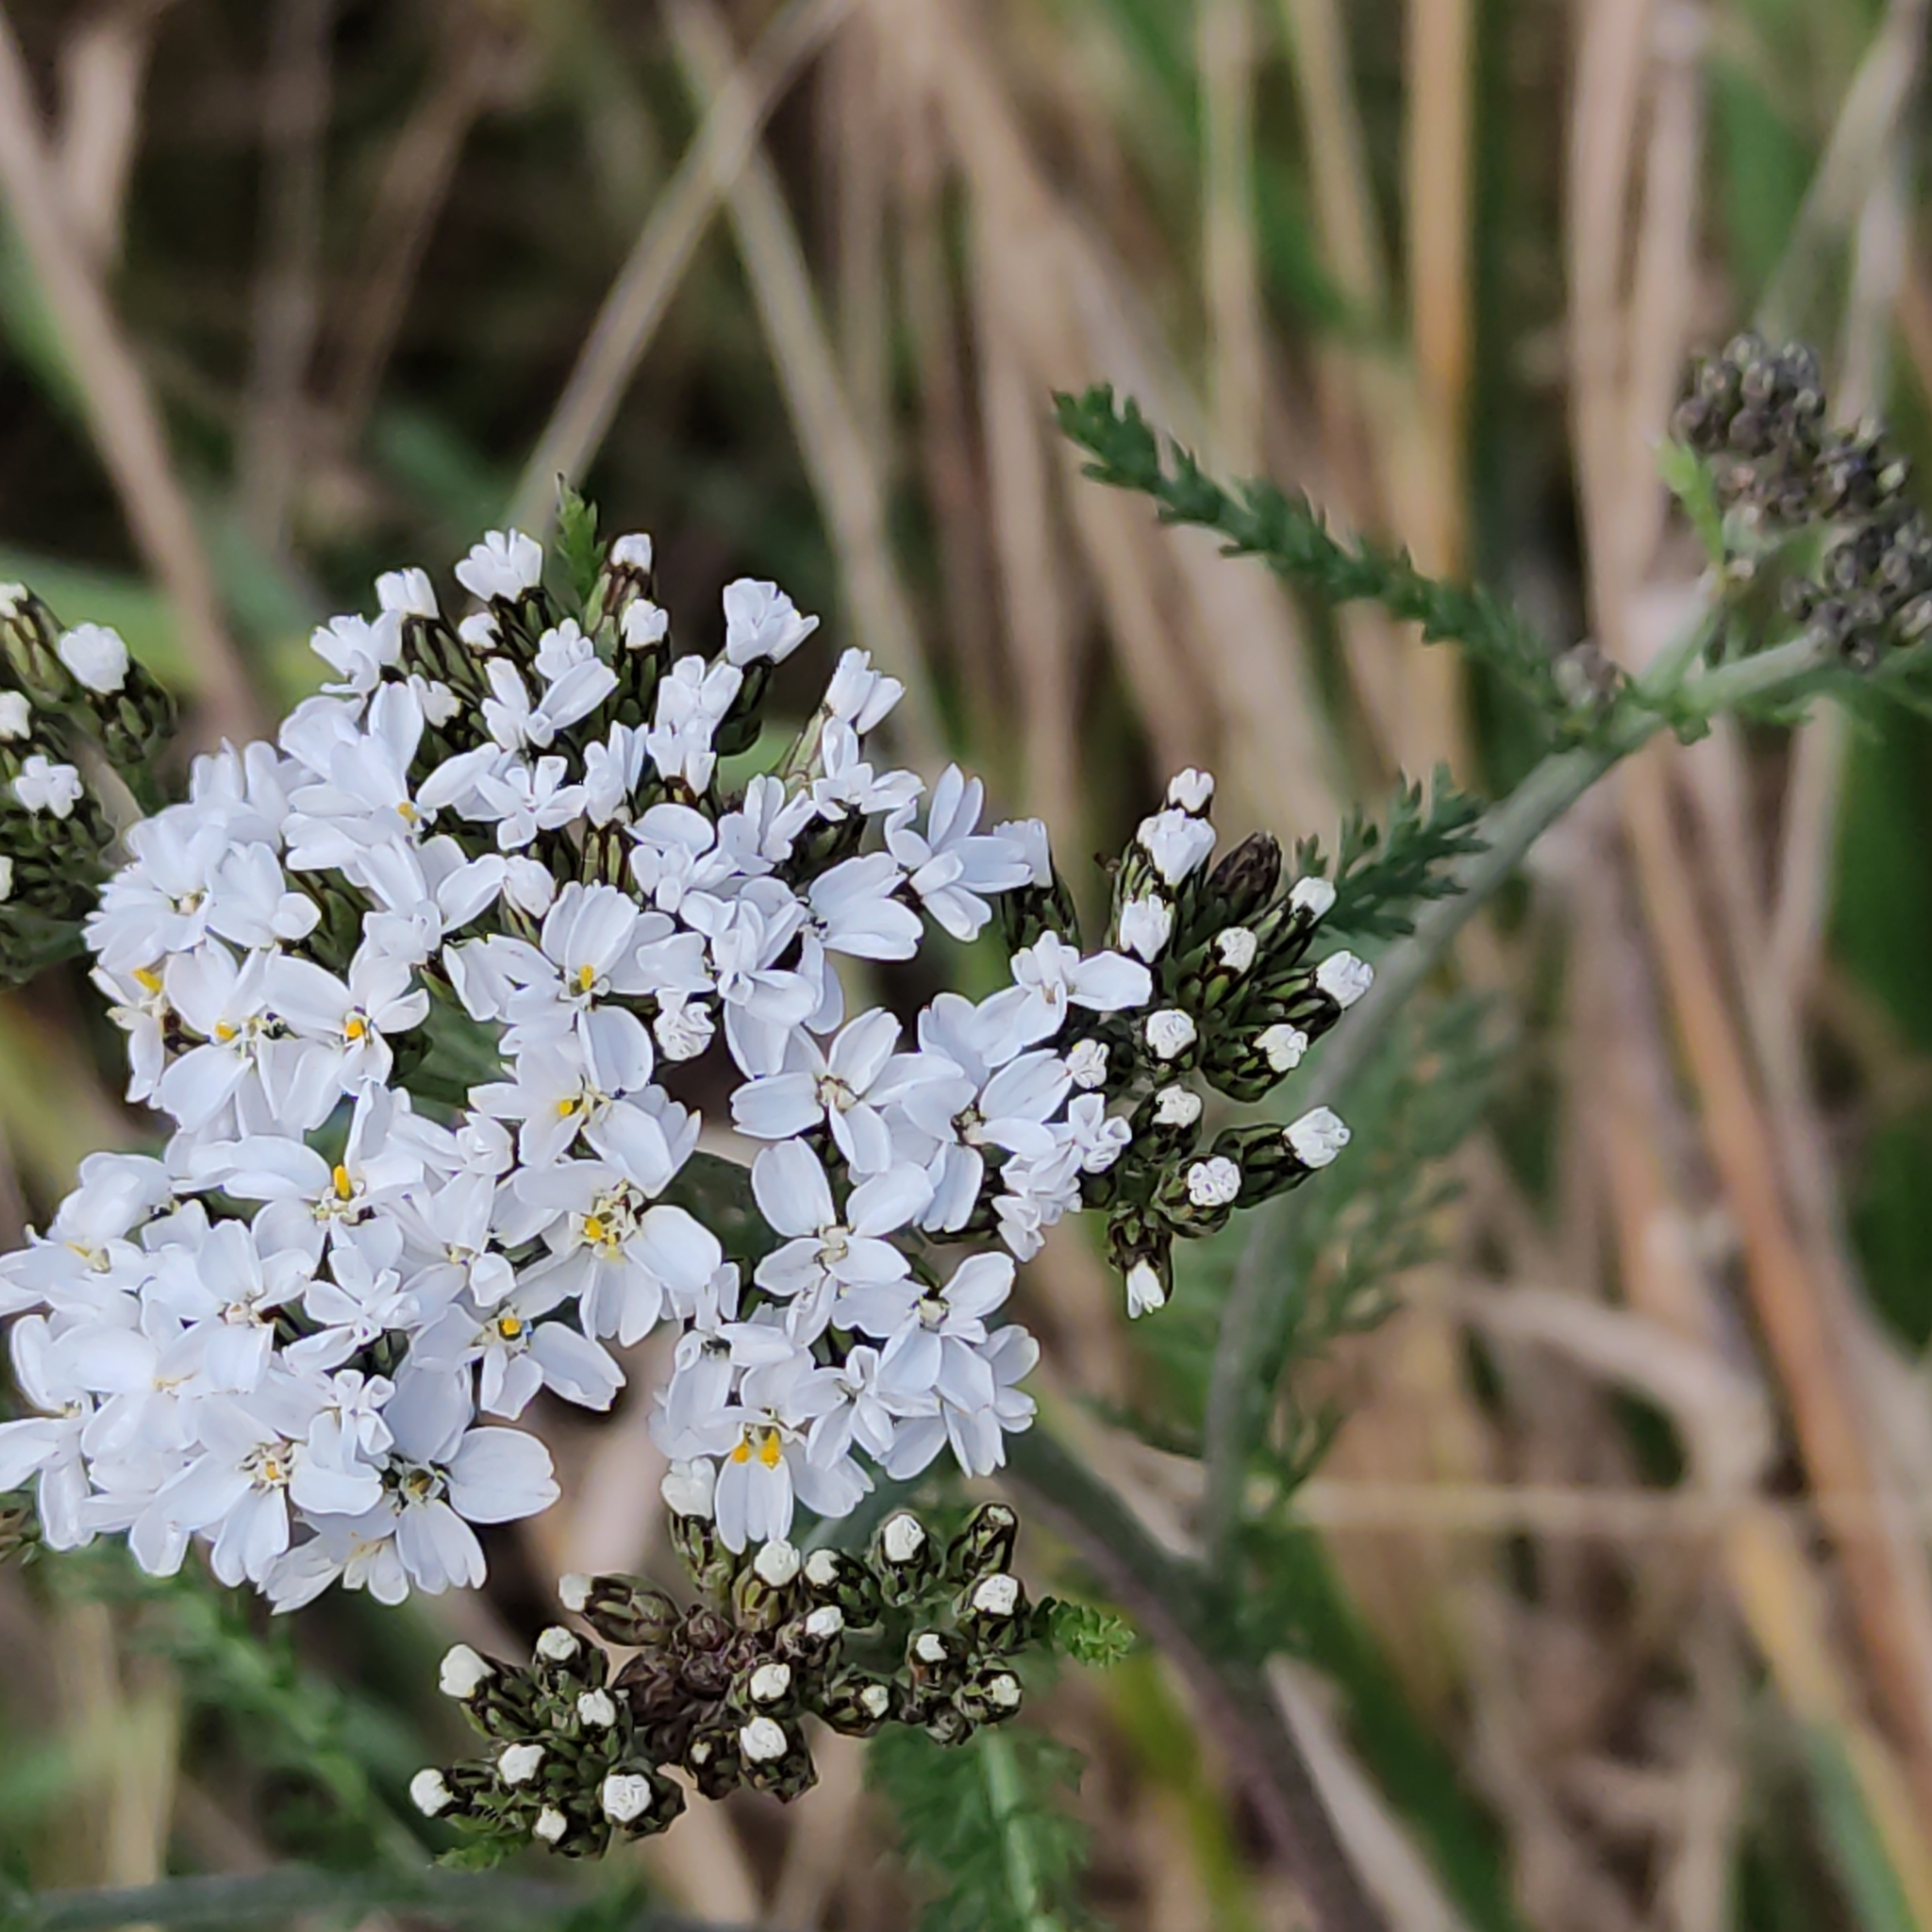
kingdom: Plantae
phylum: Tracheophyta
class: Magnoliopsida
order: Asterales
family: Asteraceae
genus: Achillea
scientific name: Achillea millefolium
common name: Yarrow
